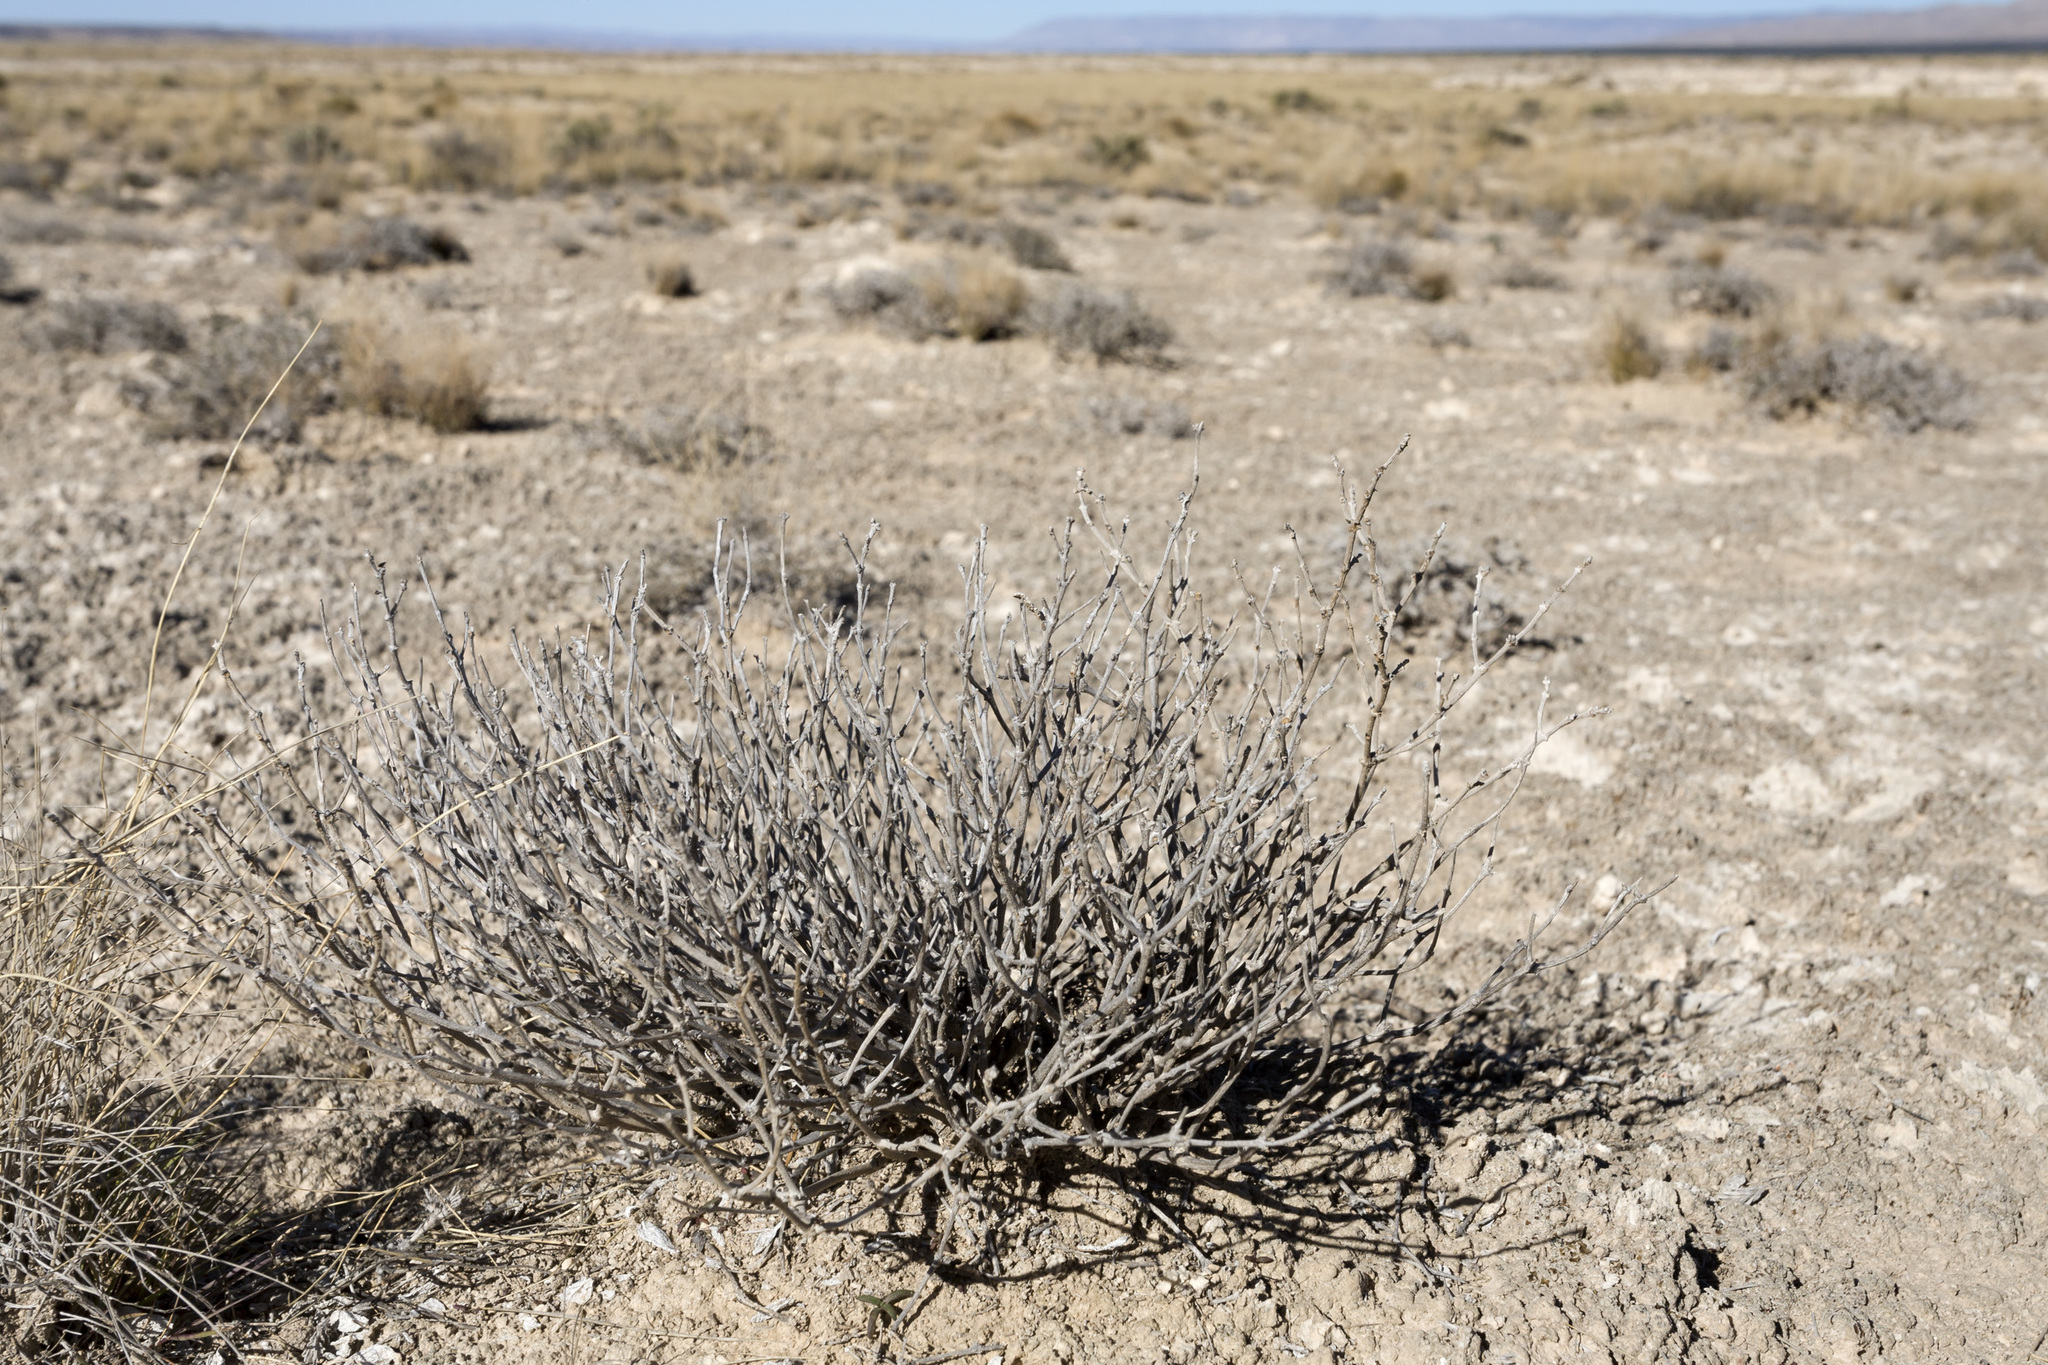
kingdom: Plantae
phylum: Tracheophyta
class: Magnoliopsida
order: Caryophyllales
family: Nyctaginaceae
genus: Acleisanthes
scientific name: Acleisanthes lanceolata
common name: Gypsum moonpod
